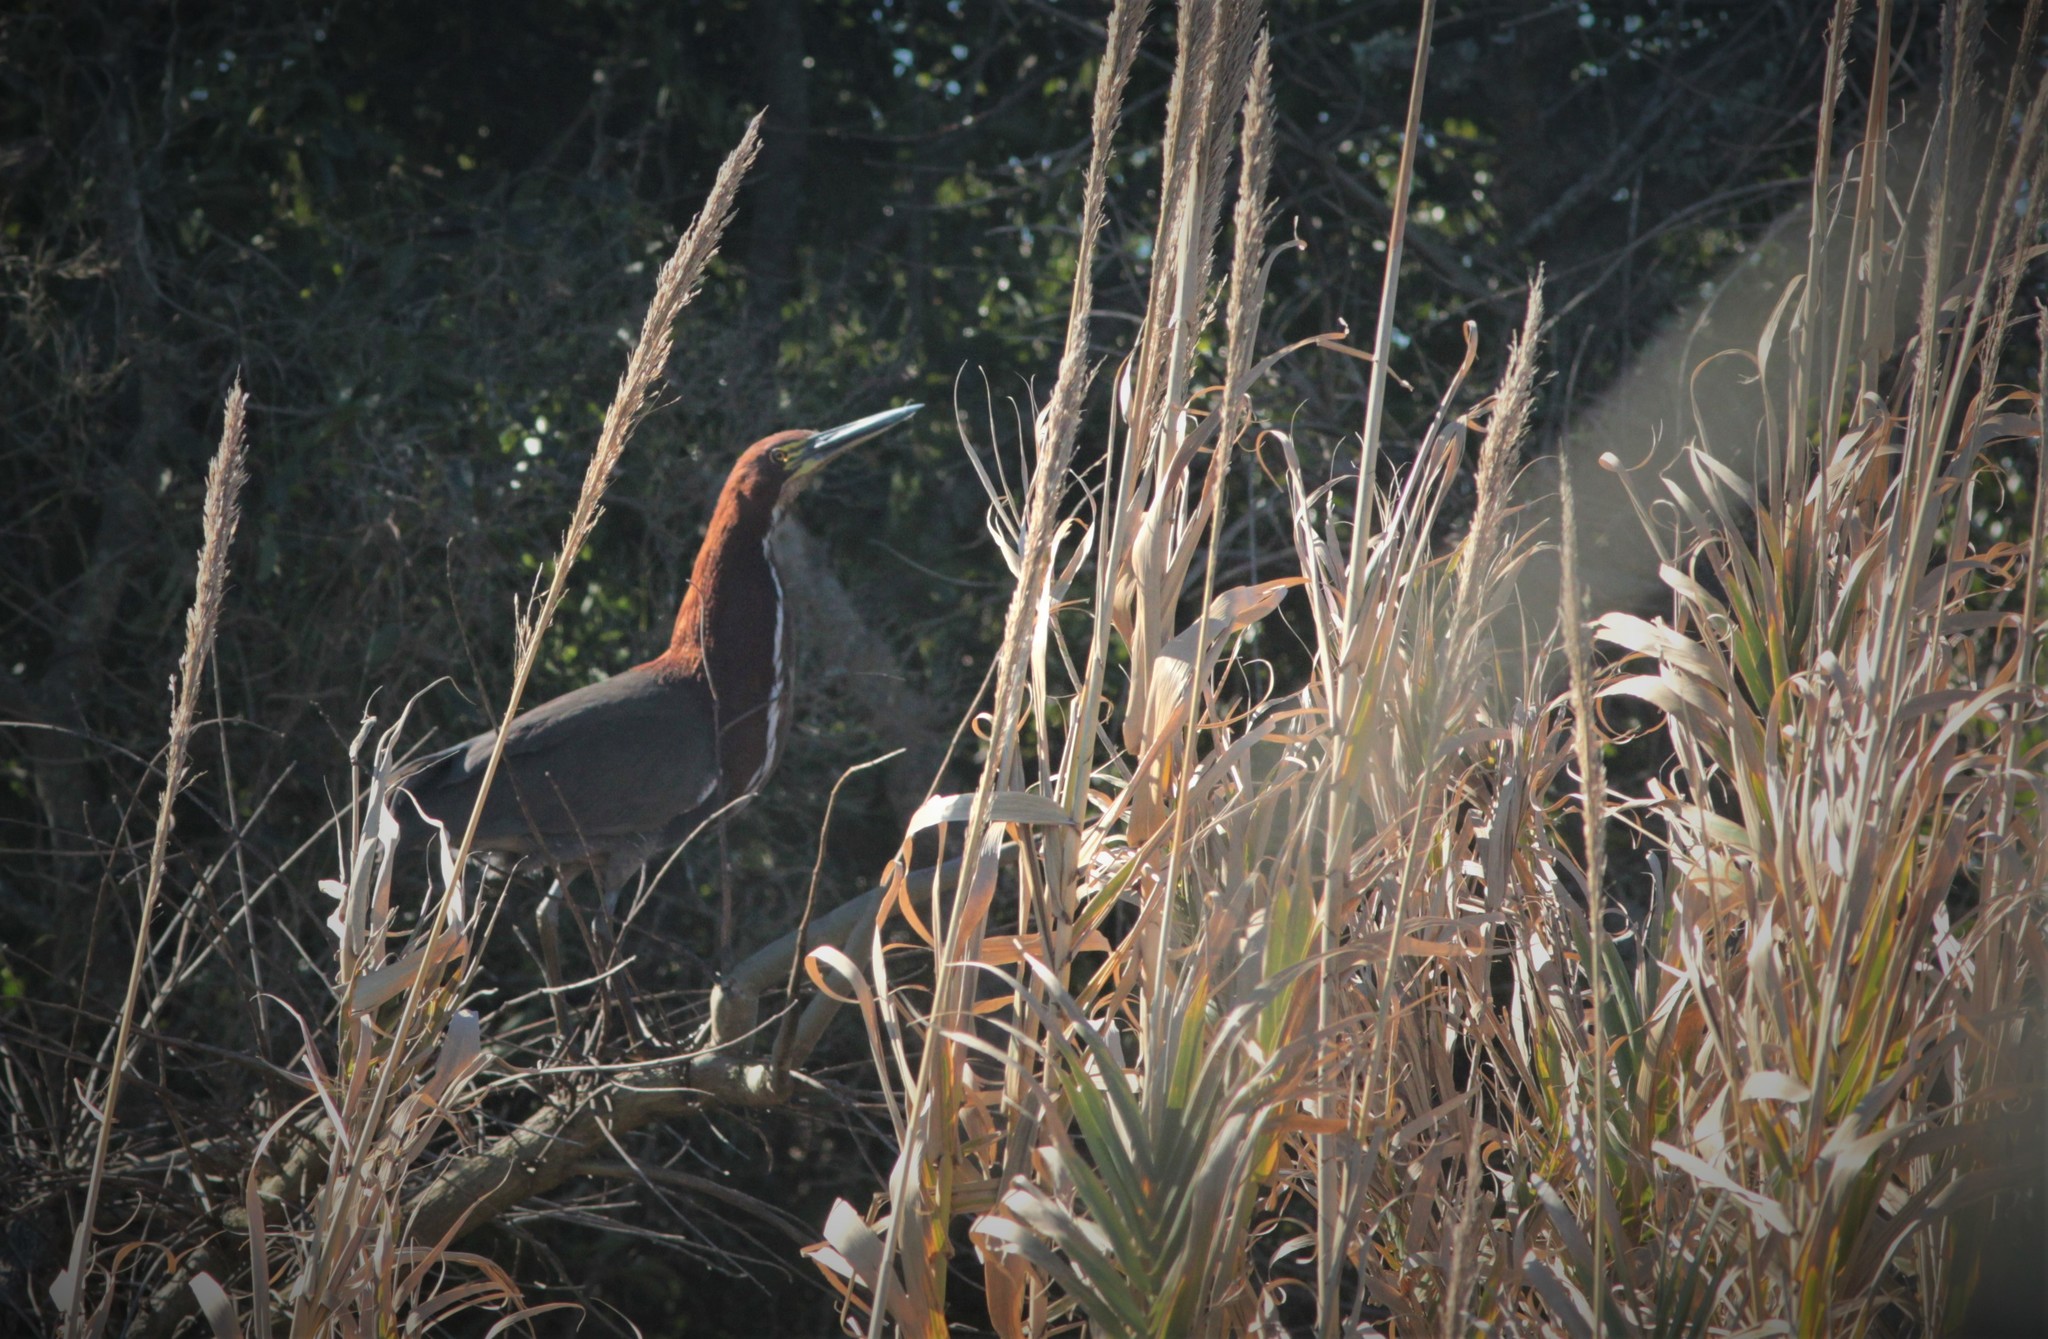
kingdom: Animalia
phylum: Chordata
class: Aves
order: Pelecaniformes
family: Ardeidae
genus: Tigrisoma
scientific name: Tigrisoma lineatum
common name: Rufescent tiger-heron
